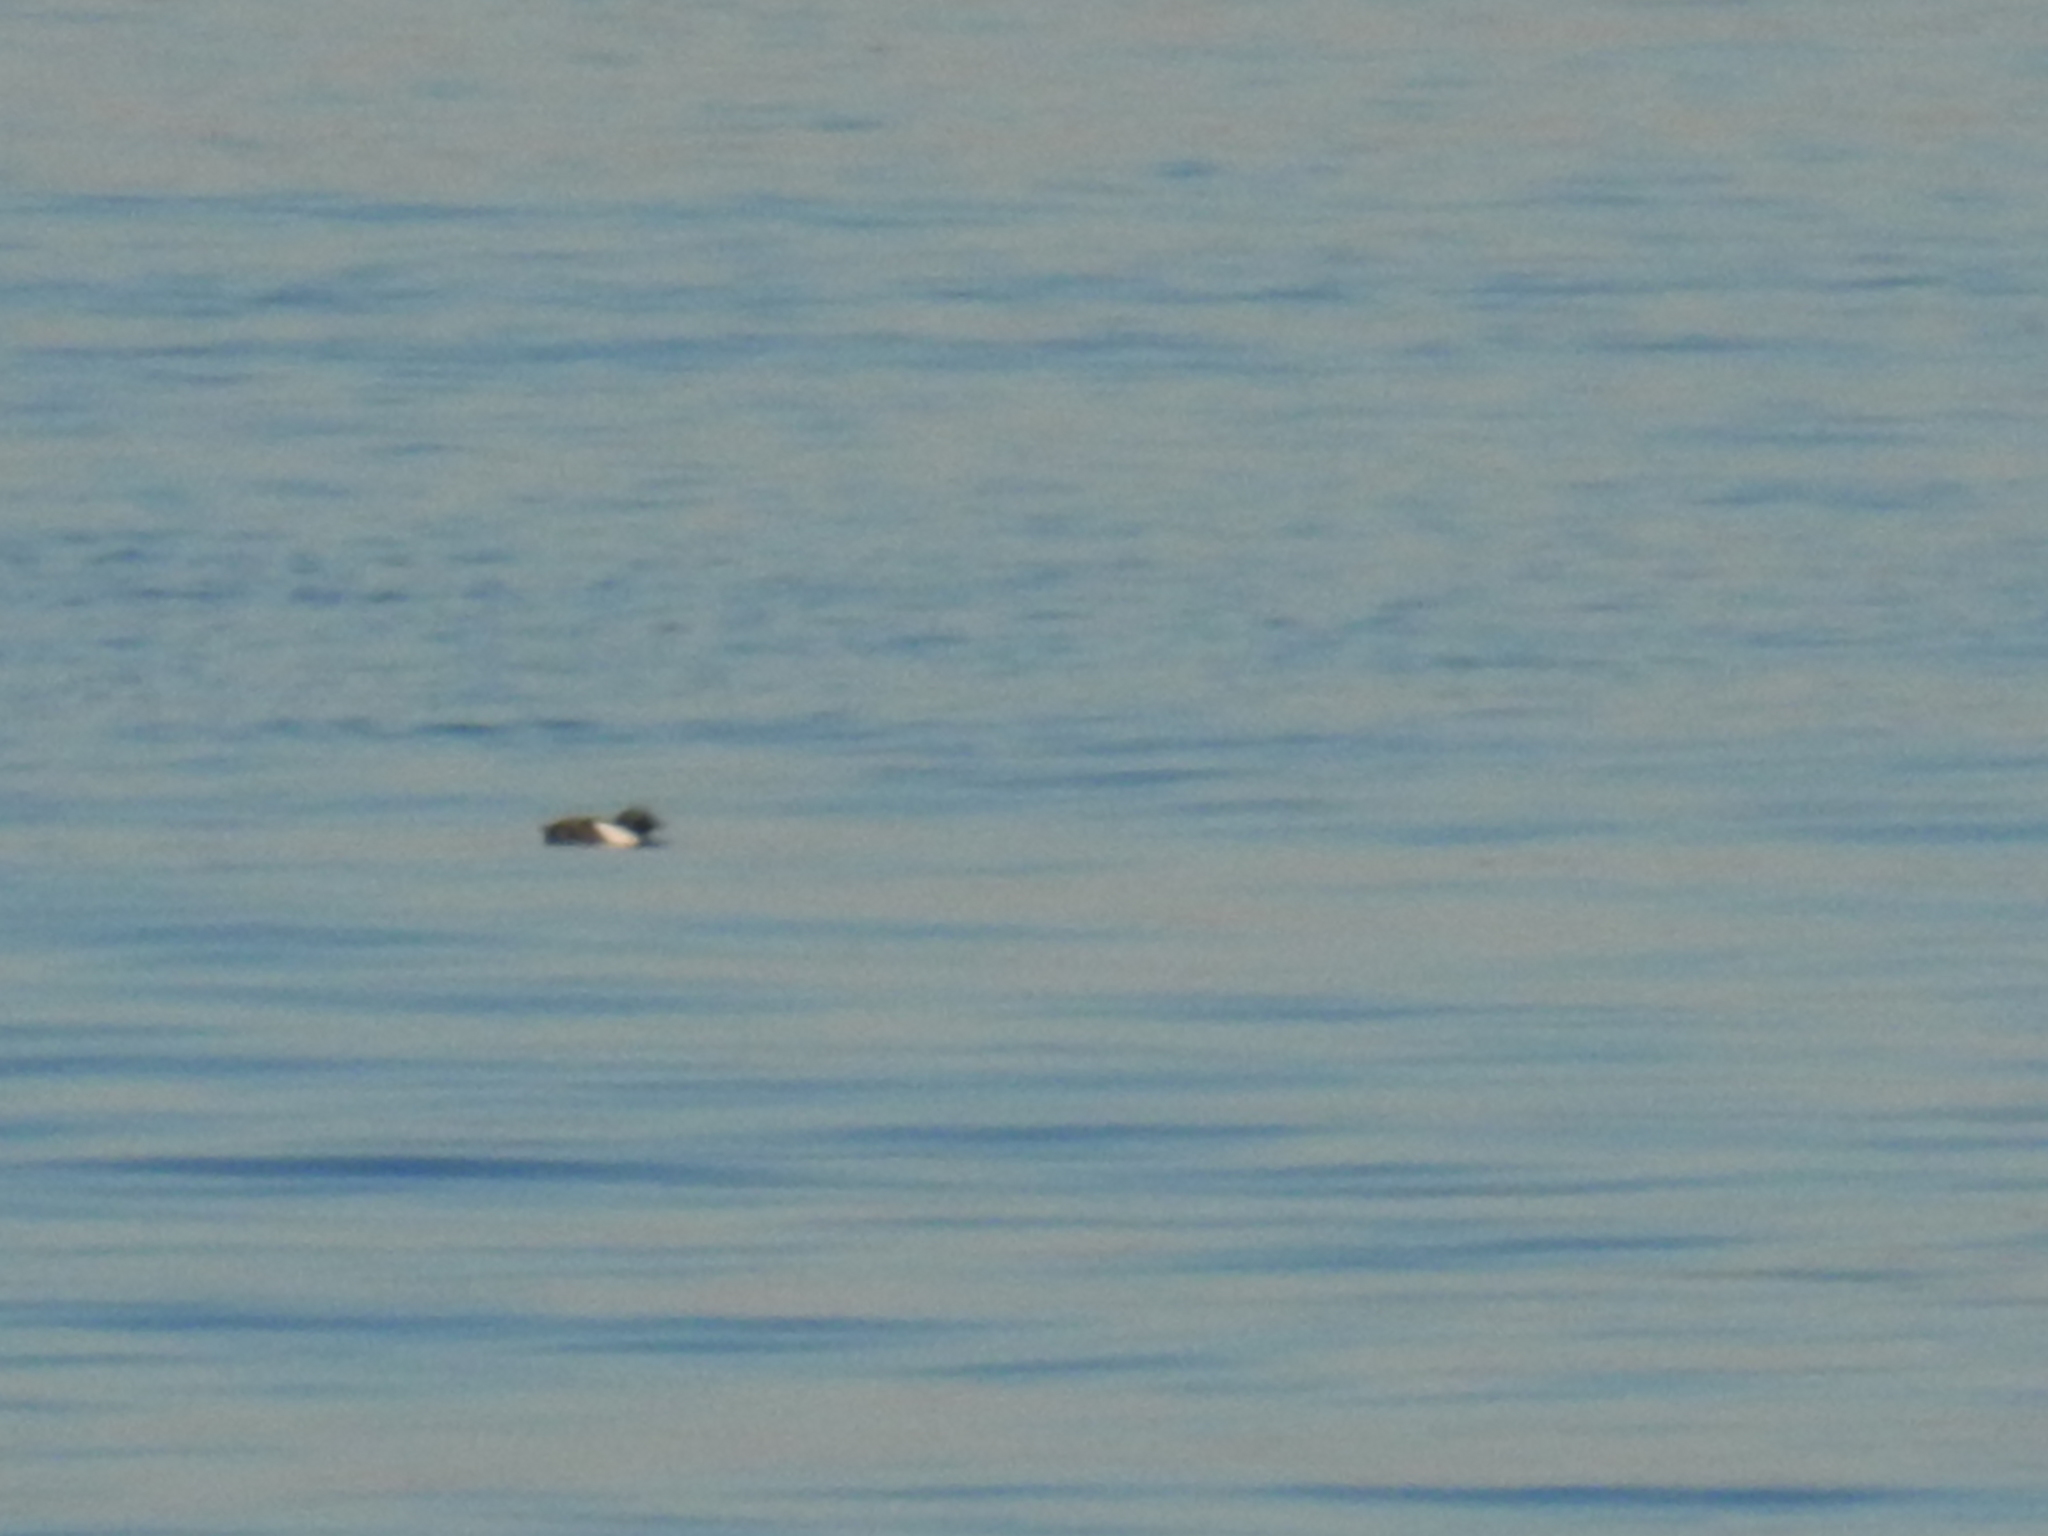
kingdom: Animalia
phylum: Chordata
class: Aves
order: Charadriiformes
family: Alcidae
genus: Cepphus
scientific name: Cepphus grylle
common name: Black guillemot
